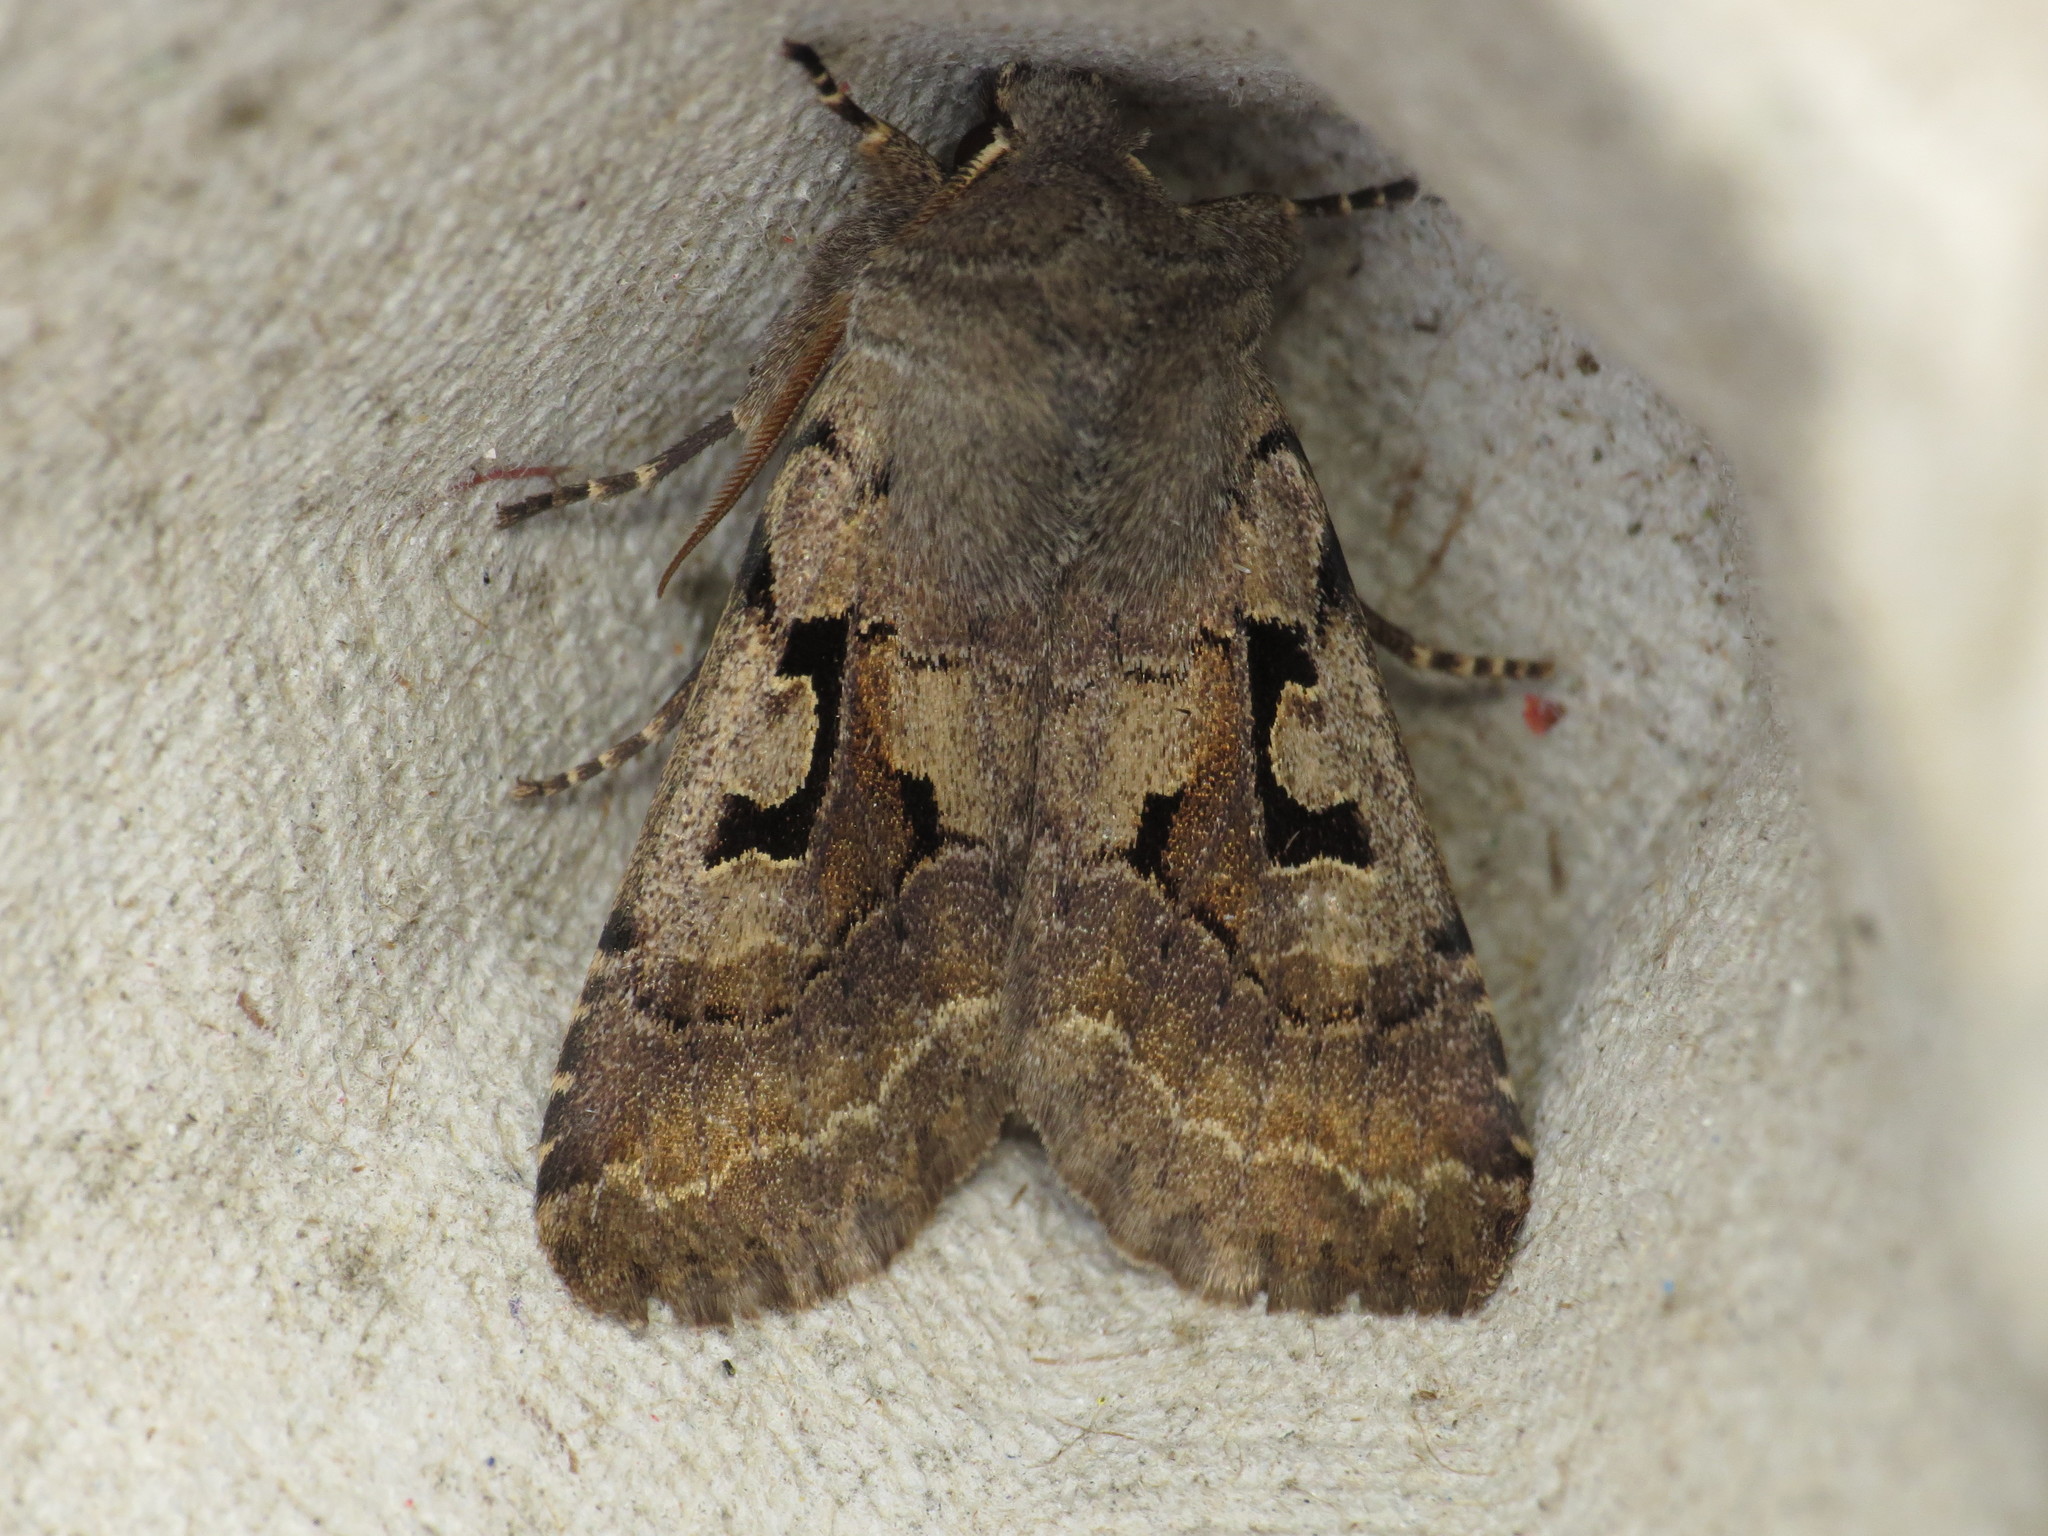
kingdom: Animalia
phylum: Arthropoda
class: Insecta
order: Lepidoptera
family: Noctuidae
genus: Orthosia
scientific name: Orthosia gothica
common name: Hebrew character
